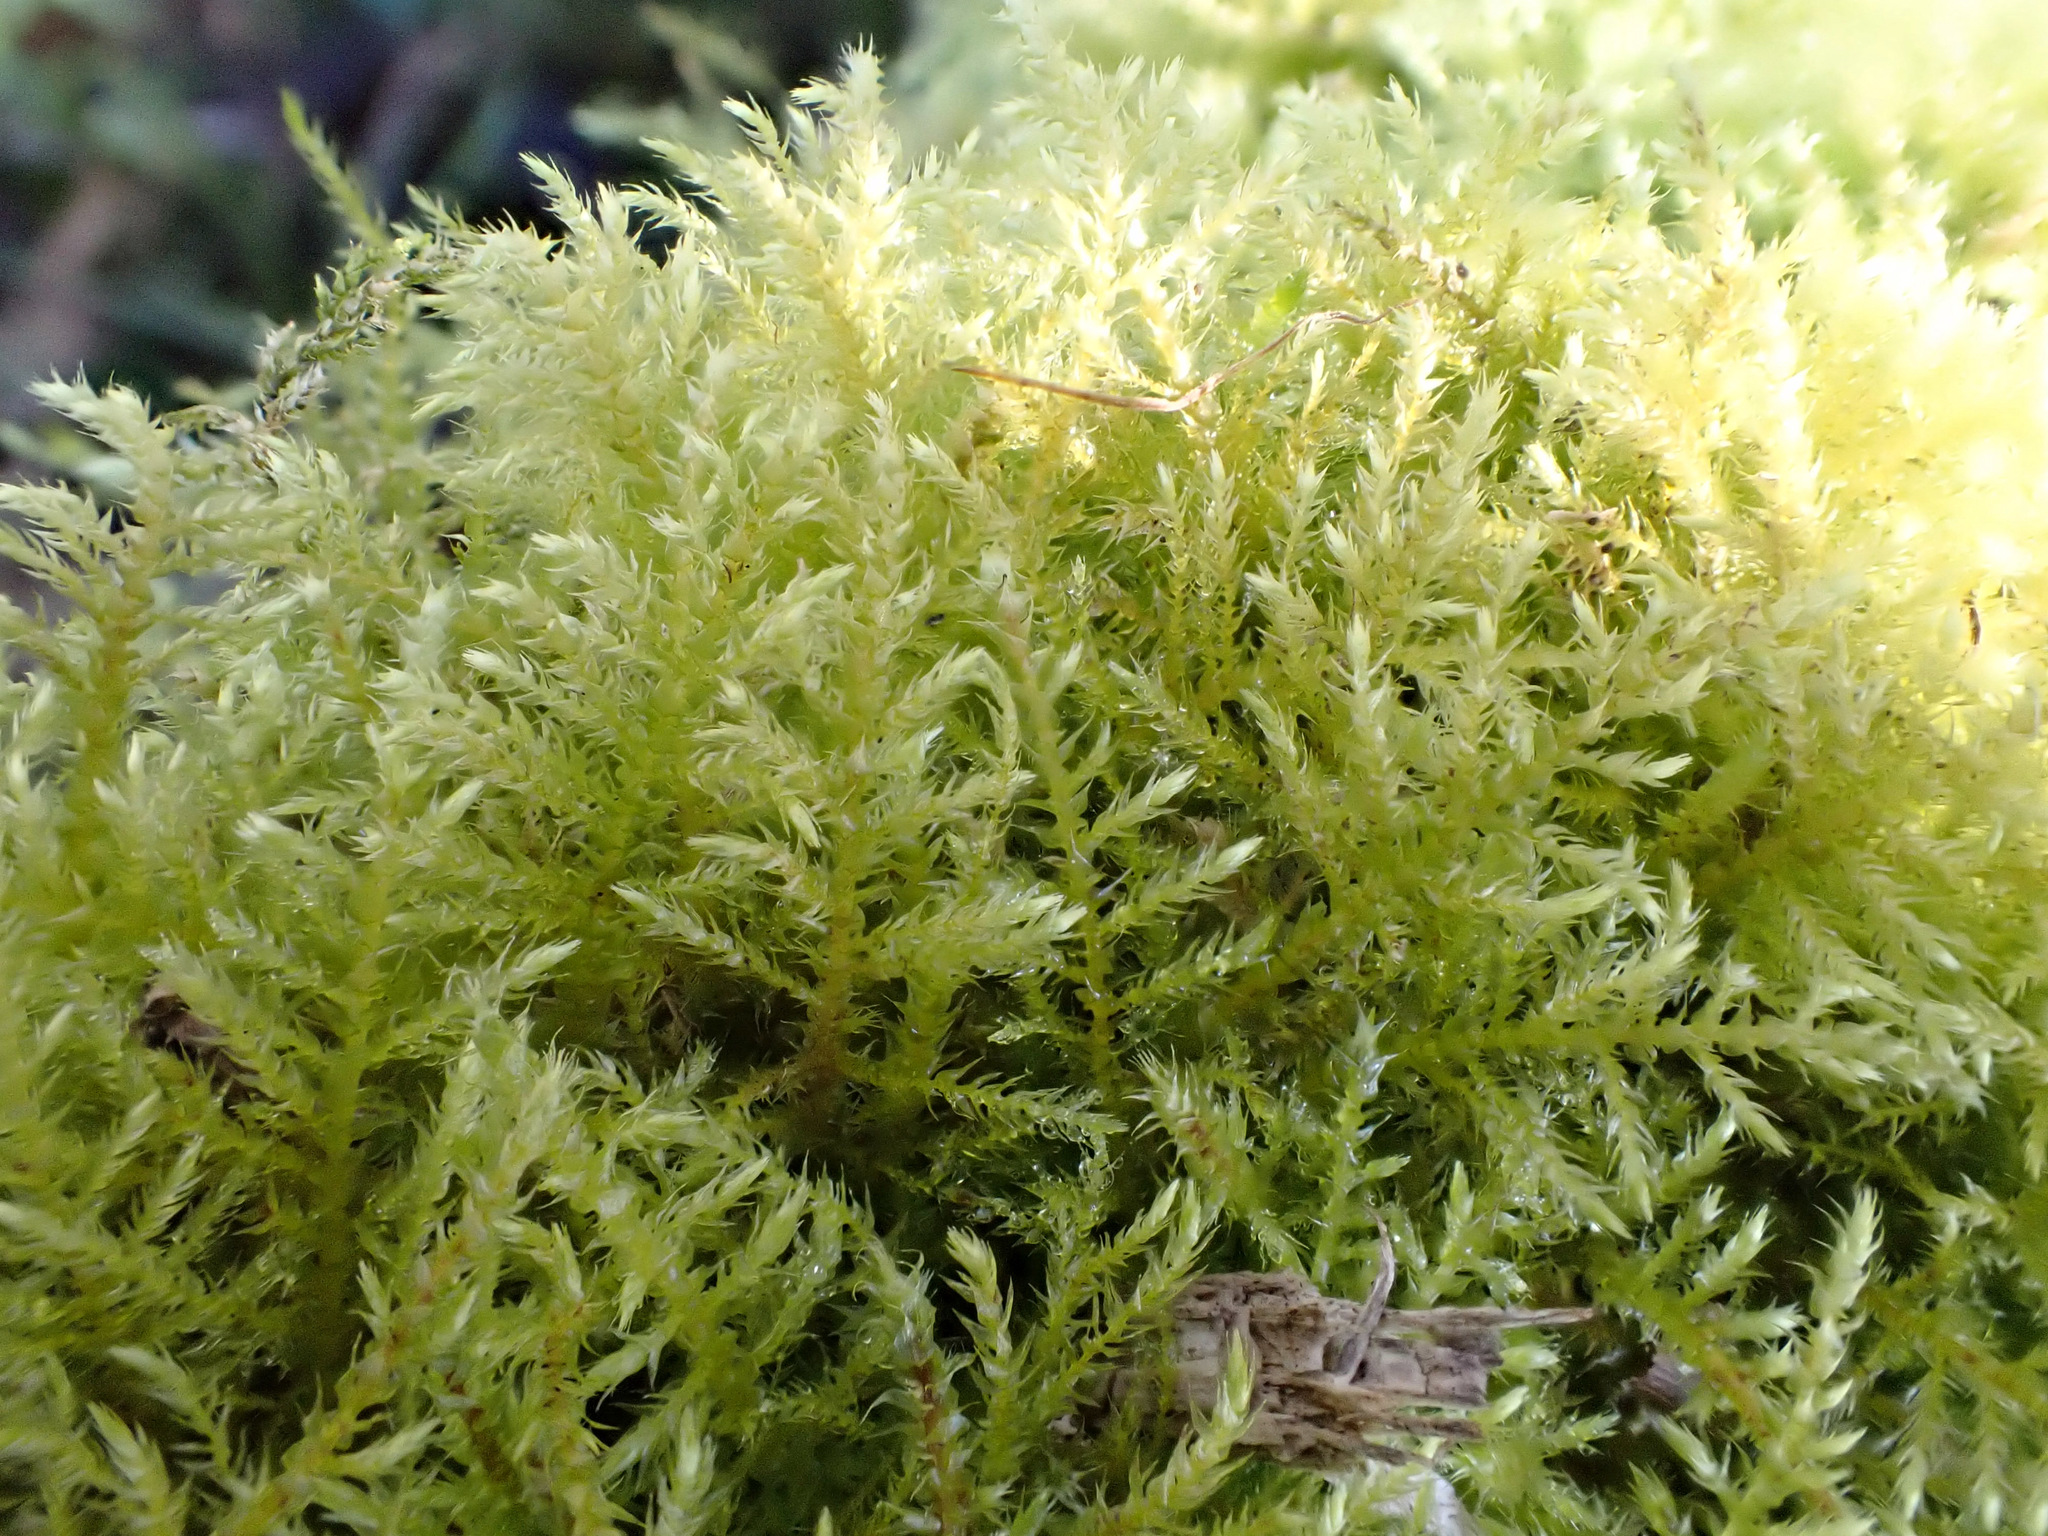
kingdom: Plantae
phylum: Bryophyta
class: Bryopsida
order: Hypnales
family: Brachytheciaceae
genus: Kindbergia
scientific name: Kindbergia praelonga
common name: Slender beaked moss
